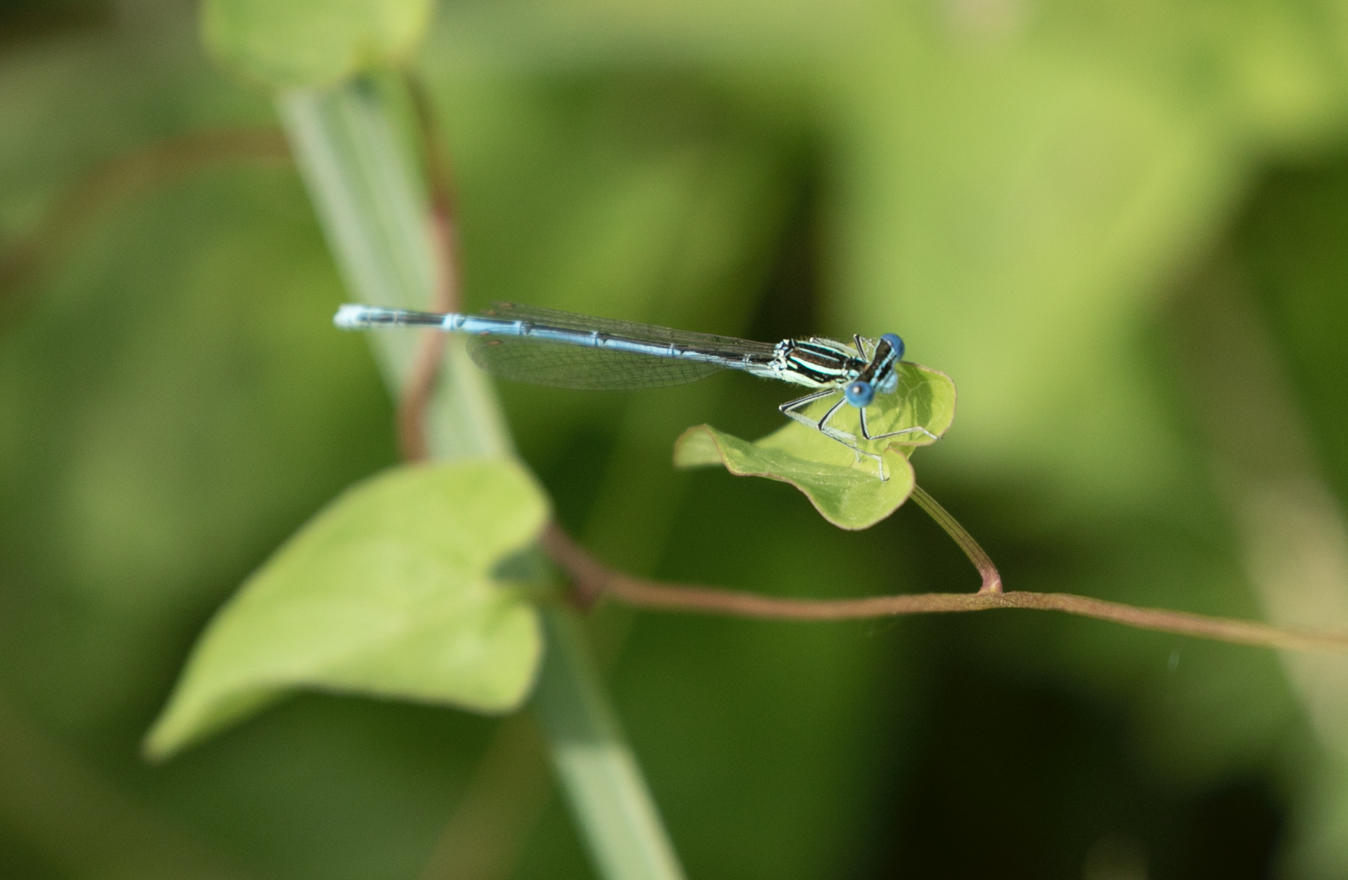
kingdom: Animalia
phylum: Arthropoda
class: Insecta
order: Odonata
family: Platycnemididae
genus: Platycnemis
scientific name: Platycnemis pennipes
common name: White-legged damselfly
